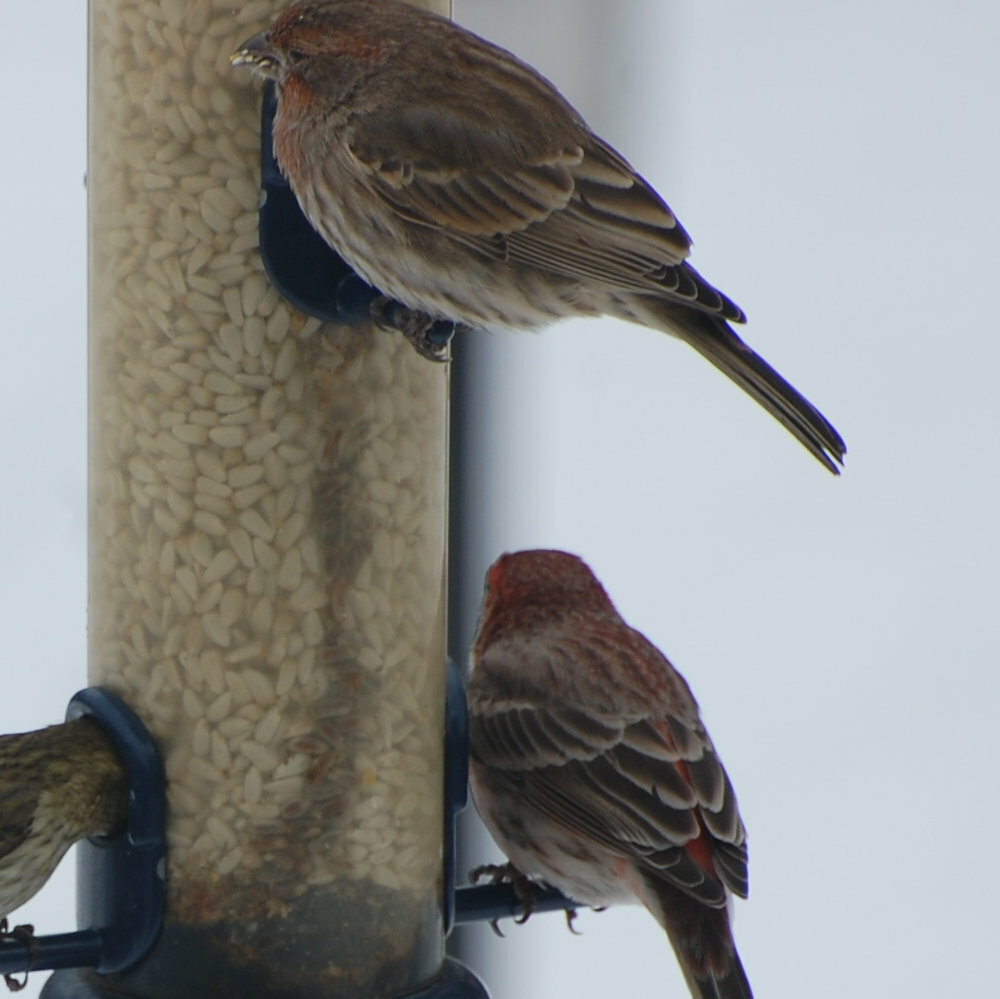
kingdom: Animalia
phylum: Chordata
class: Aves
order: Passeriformes
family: Fringillidae
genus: Haemorhous
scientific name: Haemorhous mexicanus
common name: House finch
